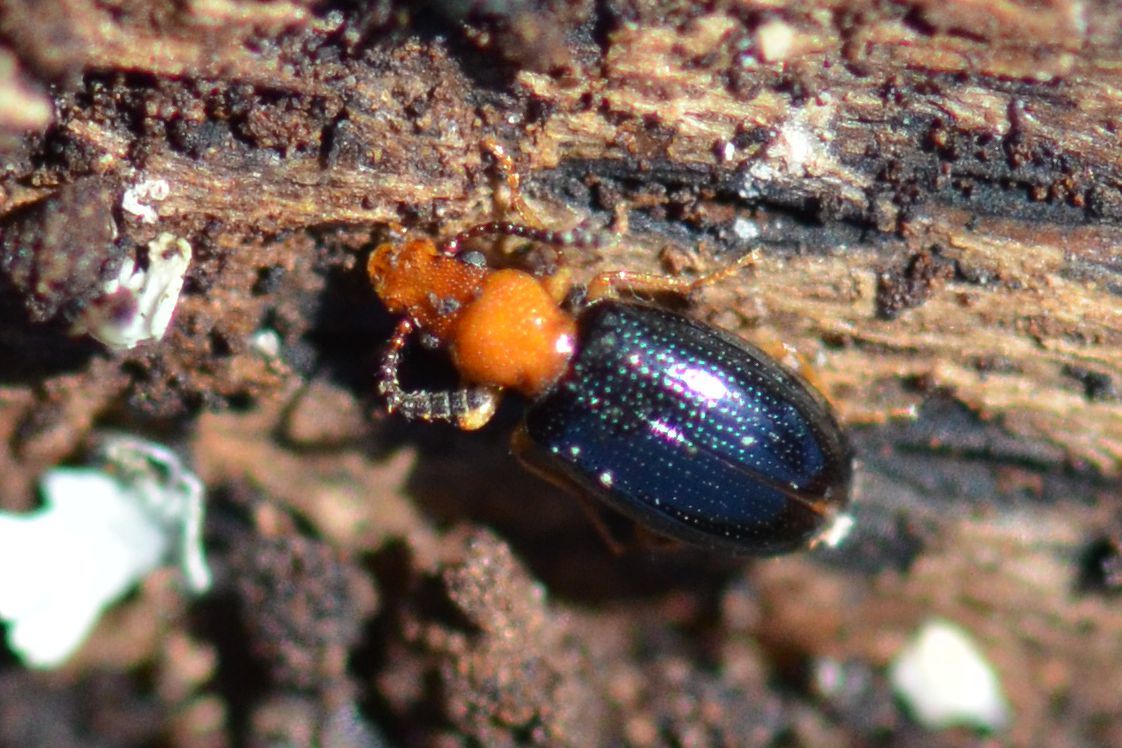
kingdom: Animalia
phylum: Arthropoda
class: Insecta
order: Coleoptera
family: Salpingidae
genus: Vincenzellus
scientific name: Vincenzellus ruficollis
